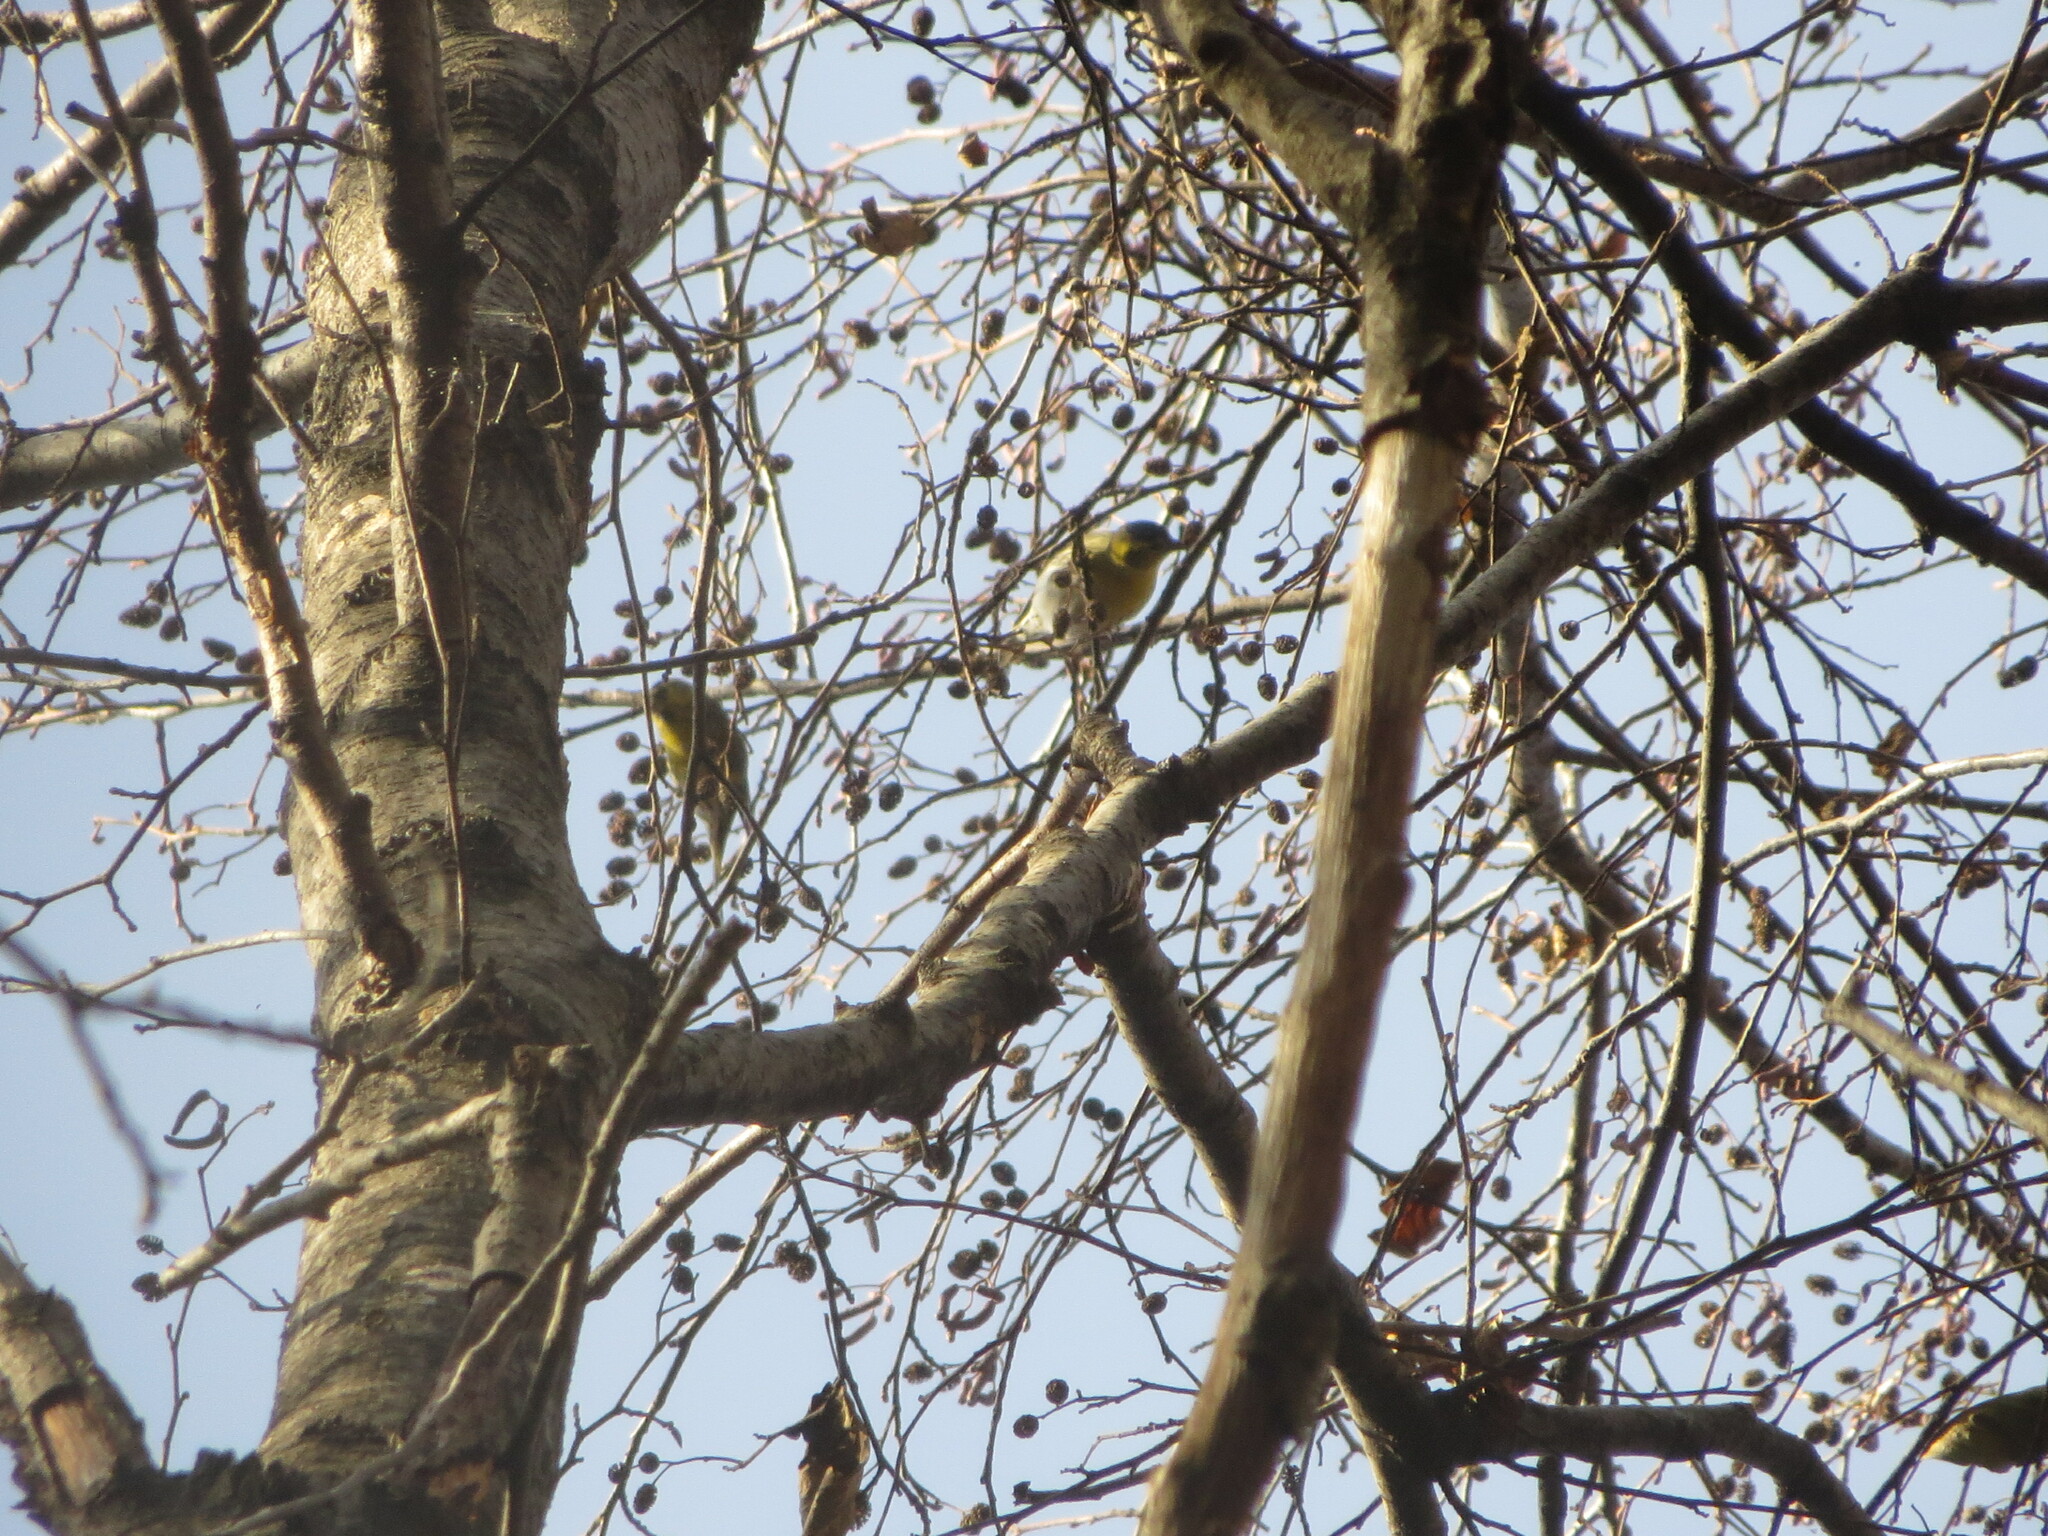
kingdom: Animalia
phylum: Chordata
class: Aves
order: Passeriformes
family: Fringillidae
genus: Spinus
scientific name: Spinus spinus
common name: Eurasian siskin
